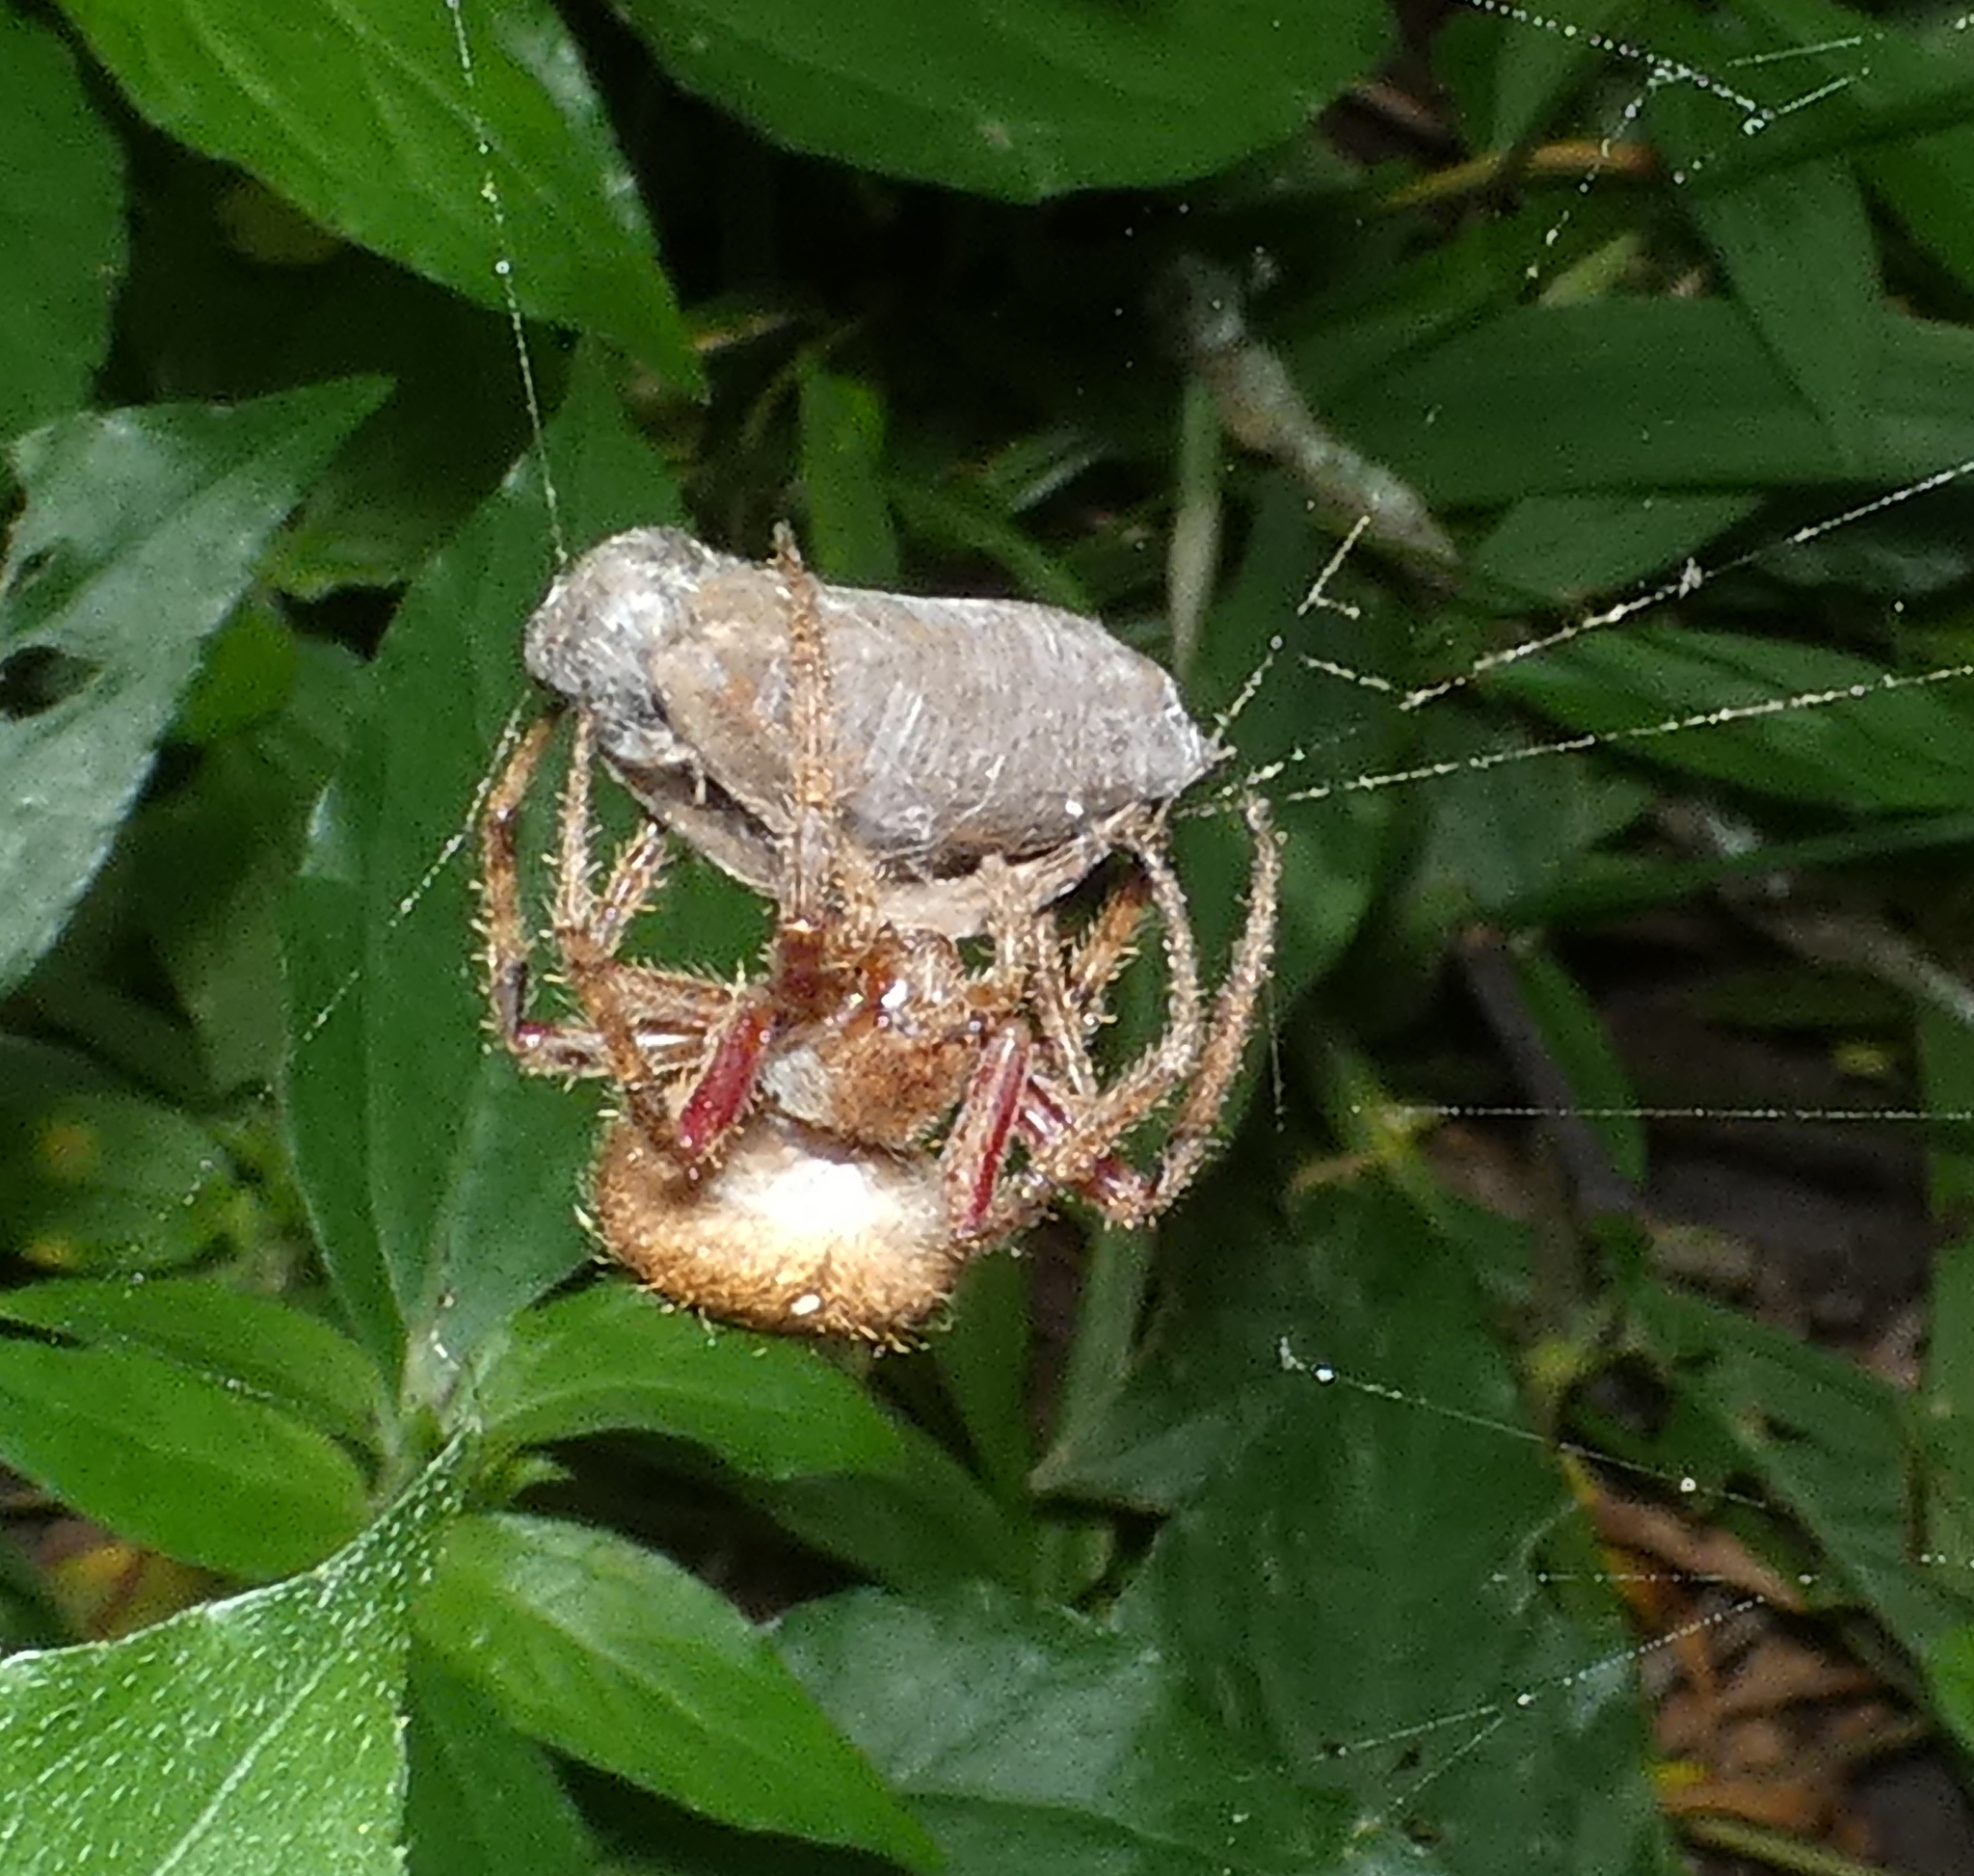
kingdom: Animalia
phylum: Arthropoda
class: Arachnida
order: Araneae
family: Araneidae
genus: Eriophora
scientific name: Eriophora edax
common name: Orb weavers
